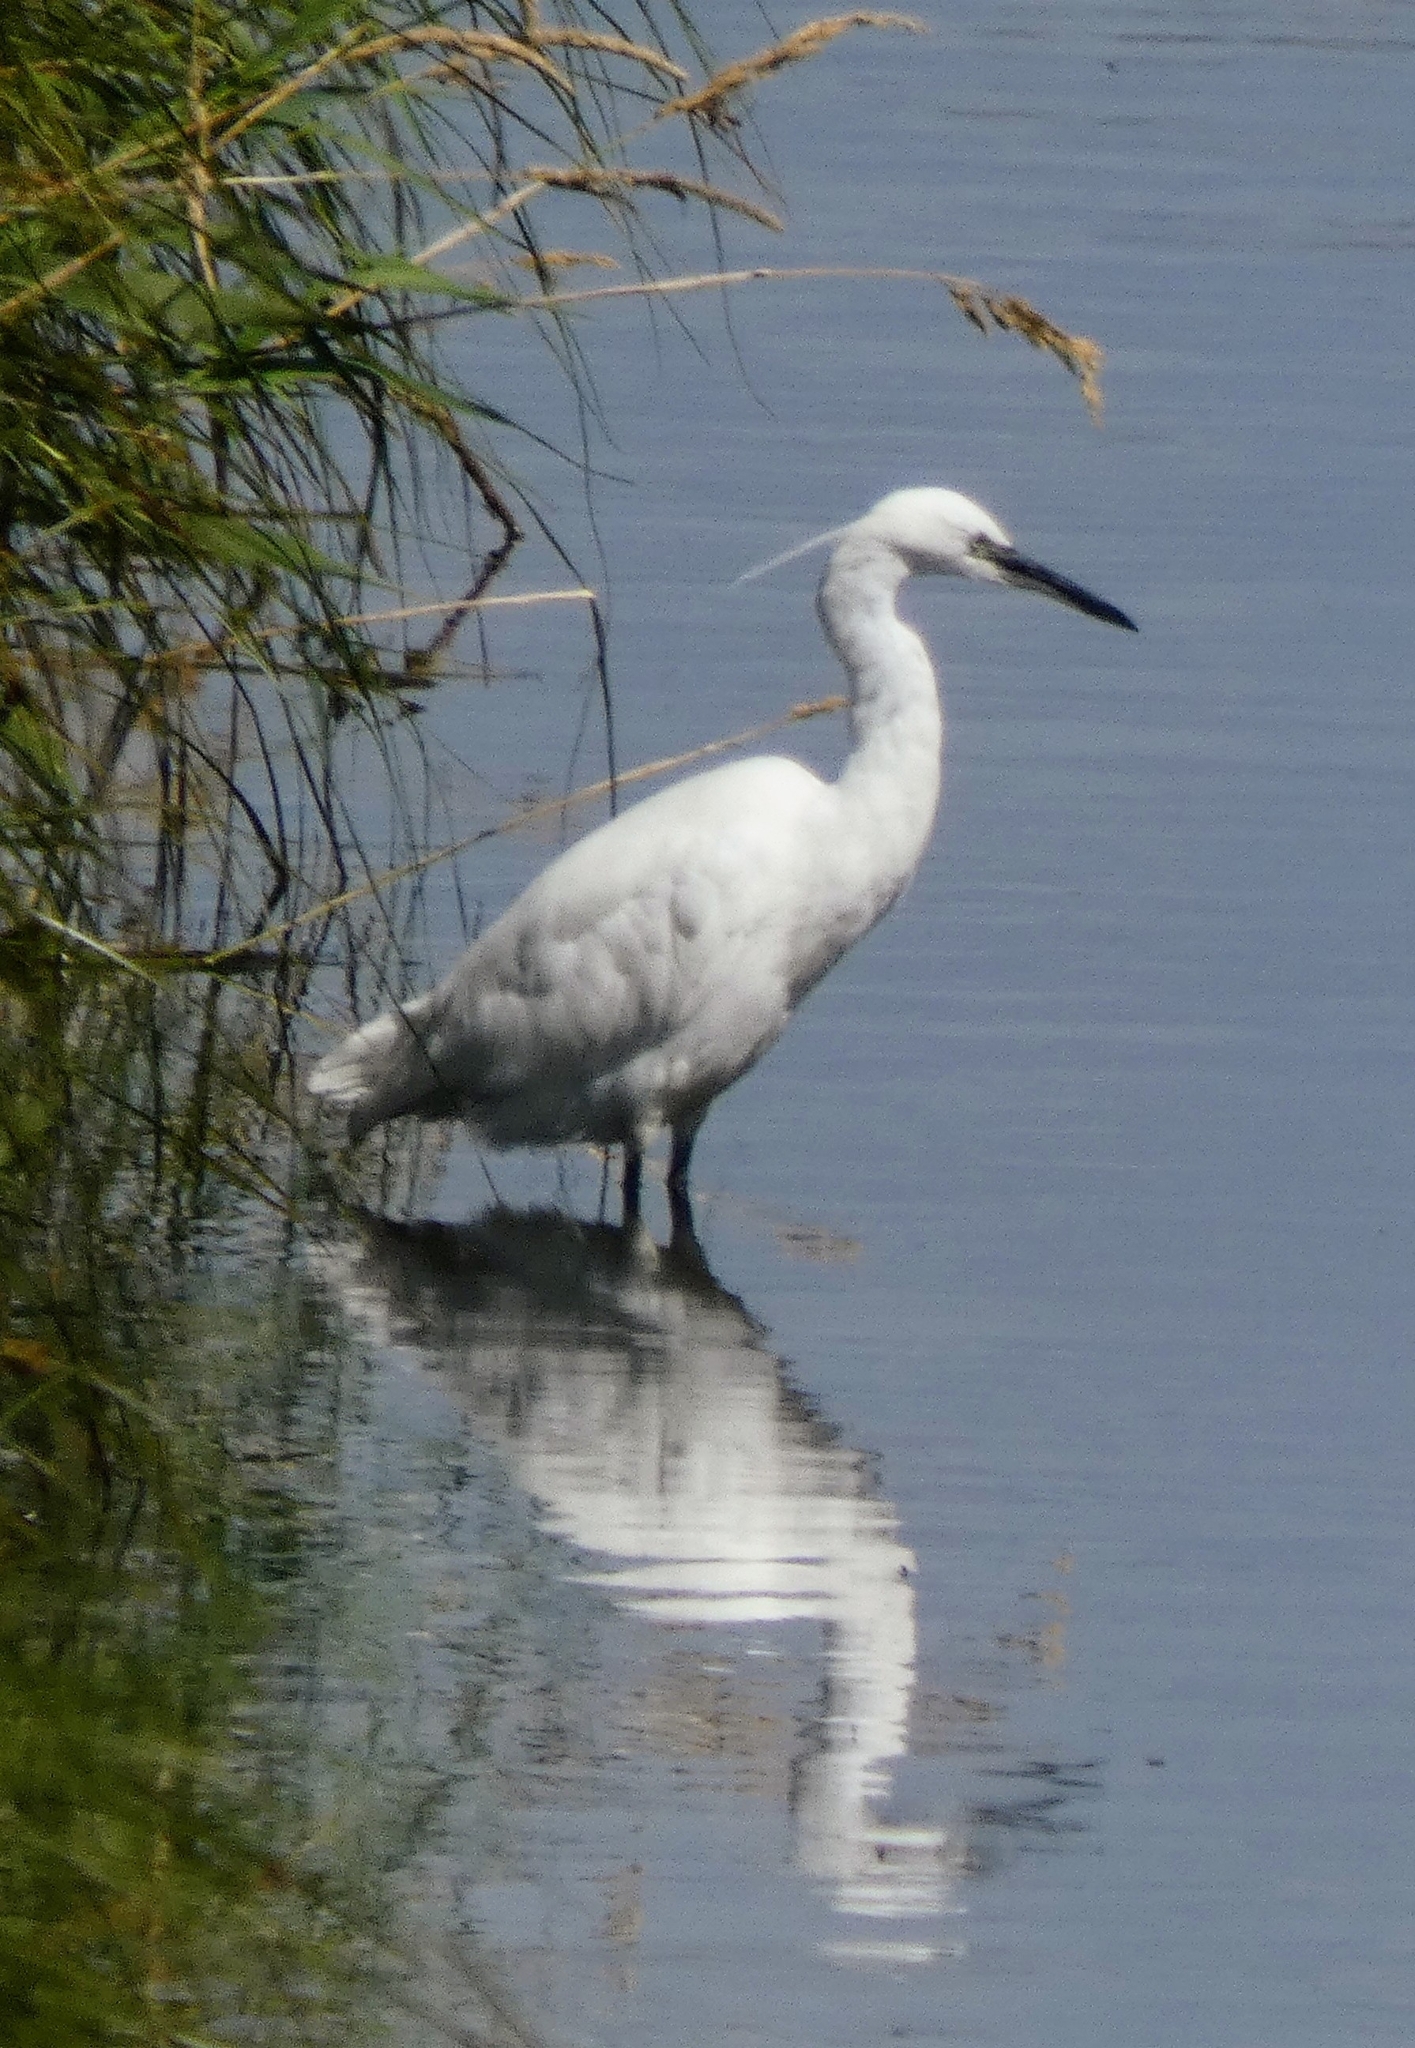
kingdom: Animalia
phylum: Chordata
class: Aves
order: Pelecaniformes
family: Ardeidae
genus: Egretta
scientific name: Egretta garzetta
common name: Little egret
